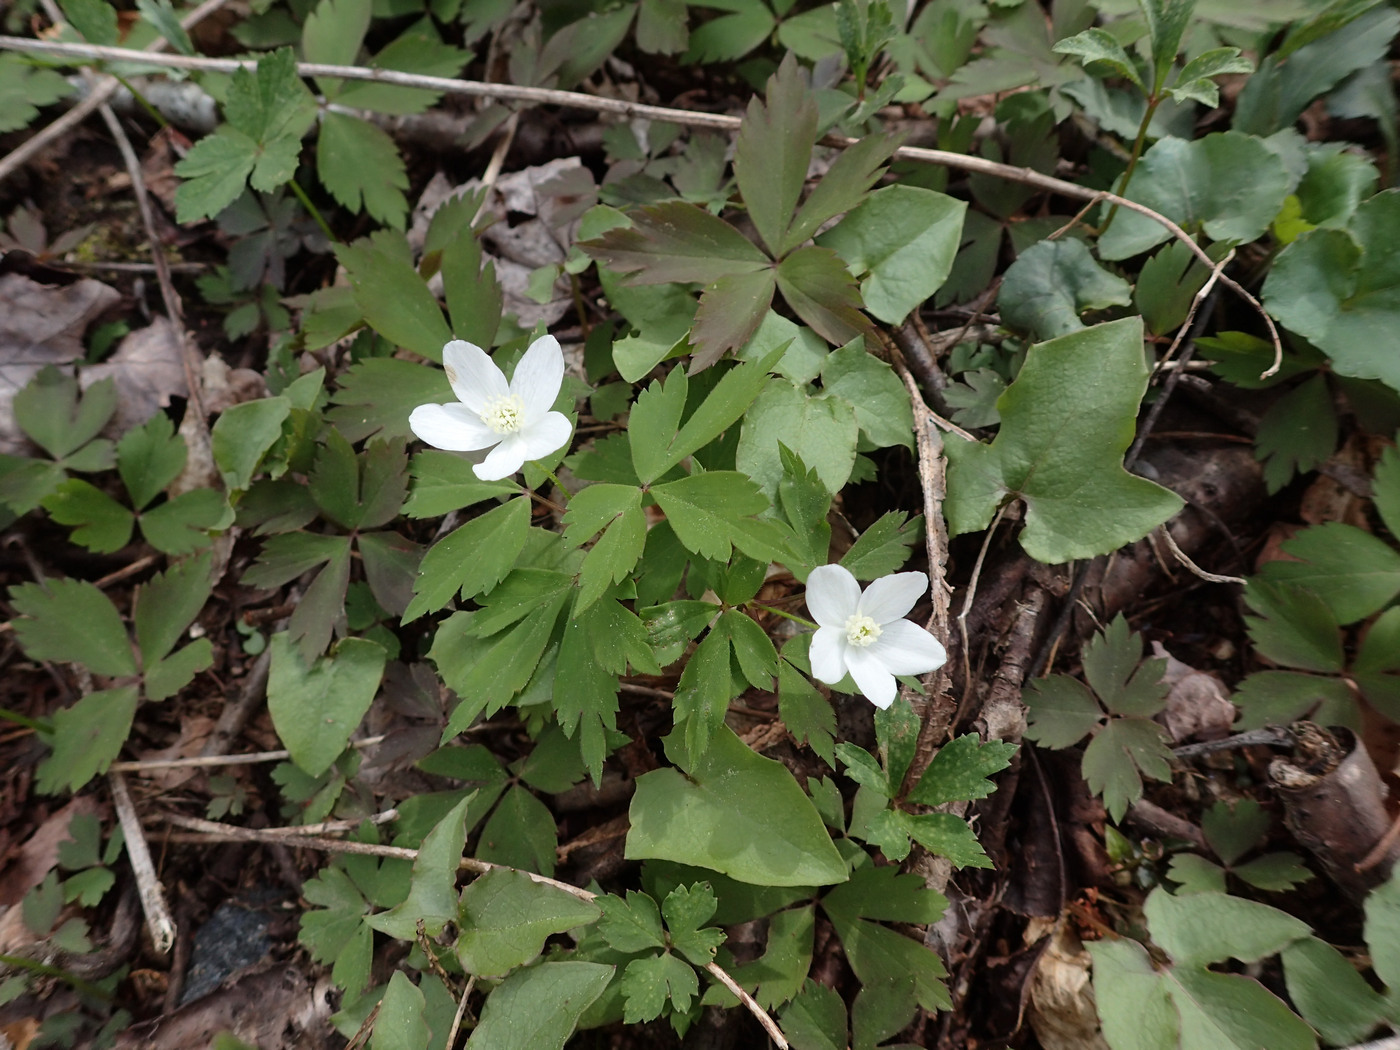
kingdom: Plantae
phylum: Tracheophyta
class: Magnoliopsida
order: Ranunculales
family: Ranunculaceae
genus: Anemone
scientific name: Anemone quinquefolia
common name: Wood anemone
